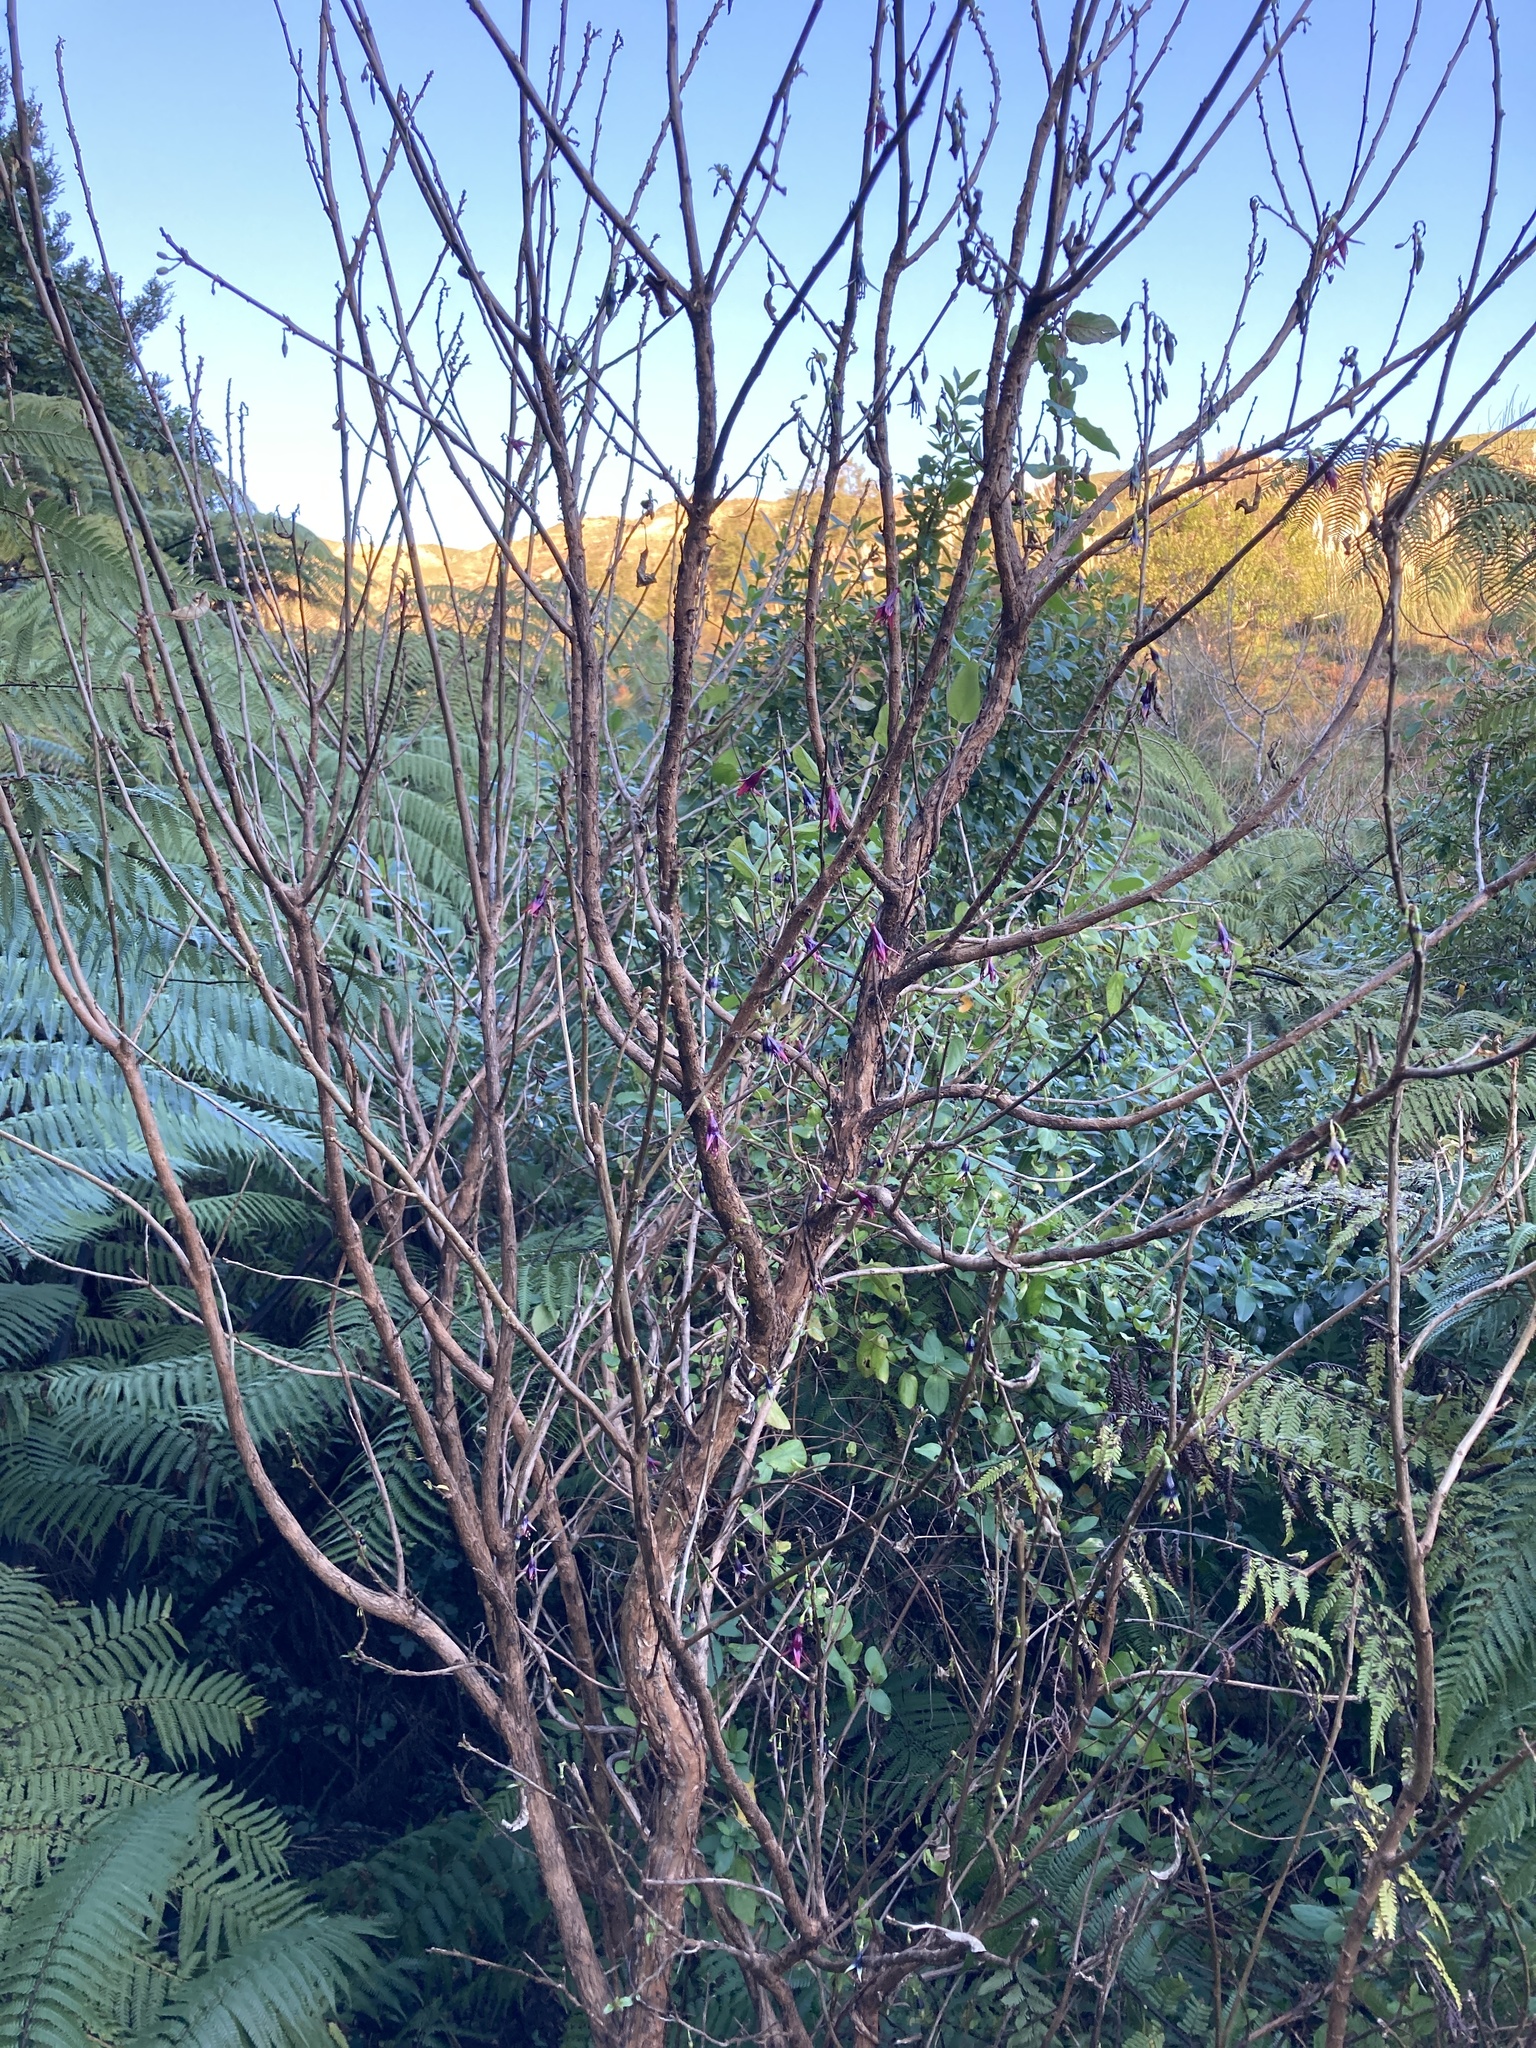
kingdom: Plantae
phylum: Tracheophyta
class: Magnoliopsida
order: Myrtales
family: Onagraceae
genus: Fuchsia
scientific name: Fuchsia excorticata
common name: Tree fuchsia
